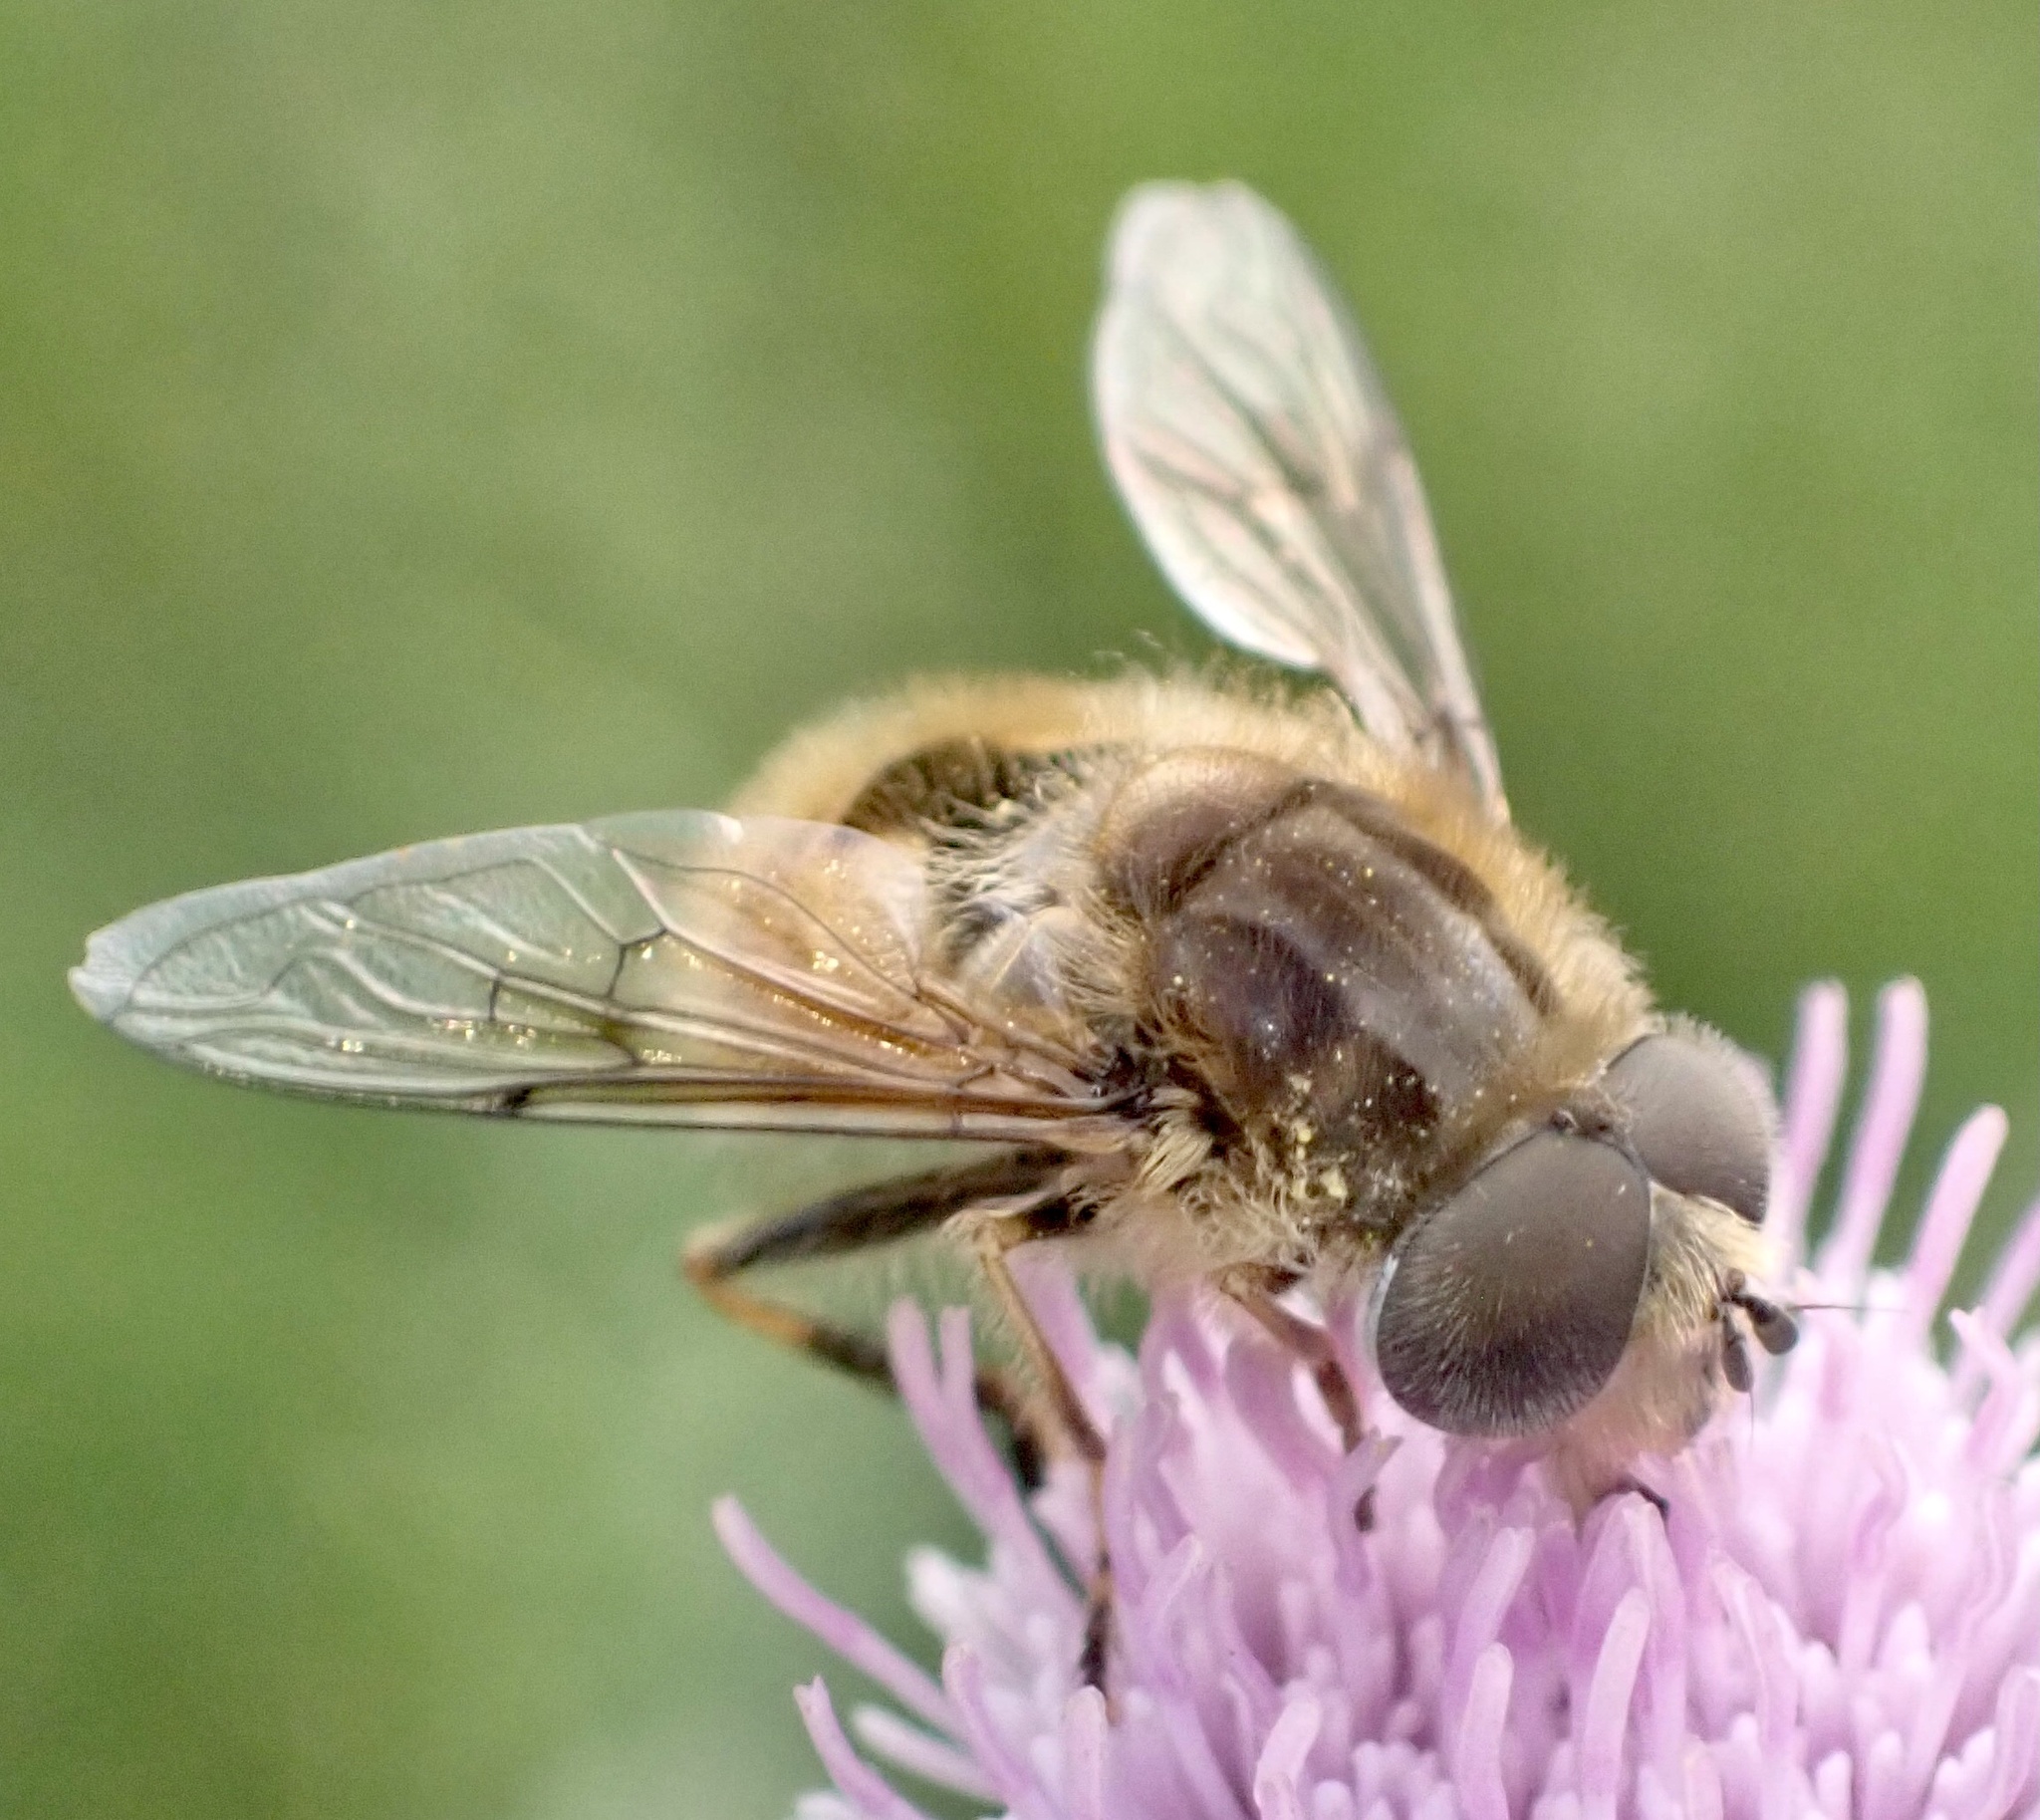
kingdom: Animalia
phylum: Arthropoda
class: Insecta
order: Diptera
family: Syrphidae
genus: Eristalis
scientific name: Eristalis abusivus
